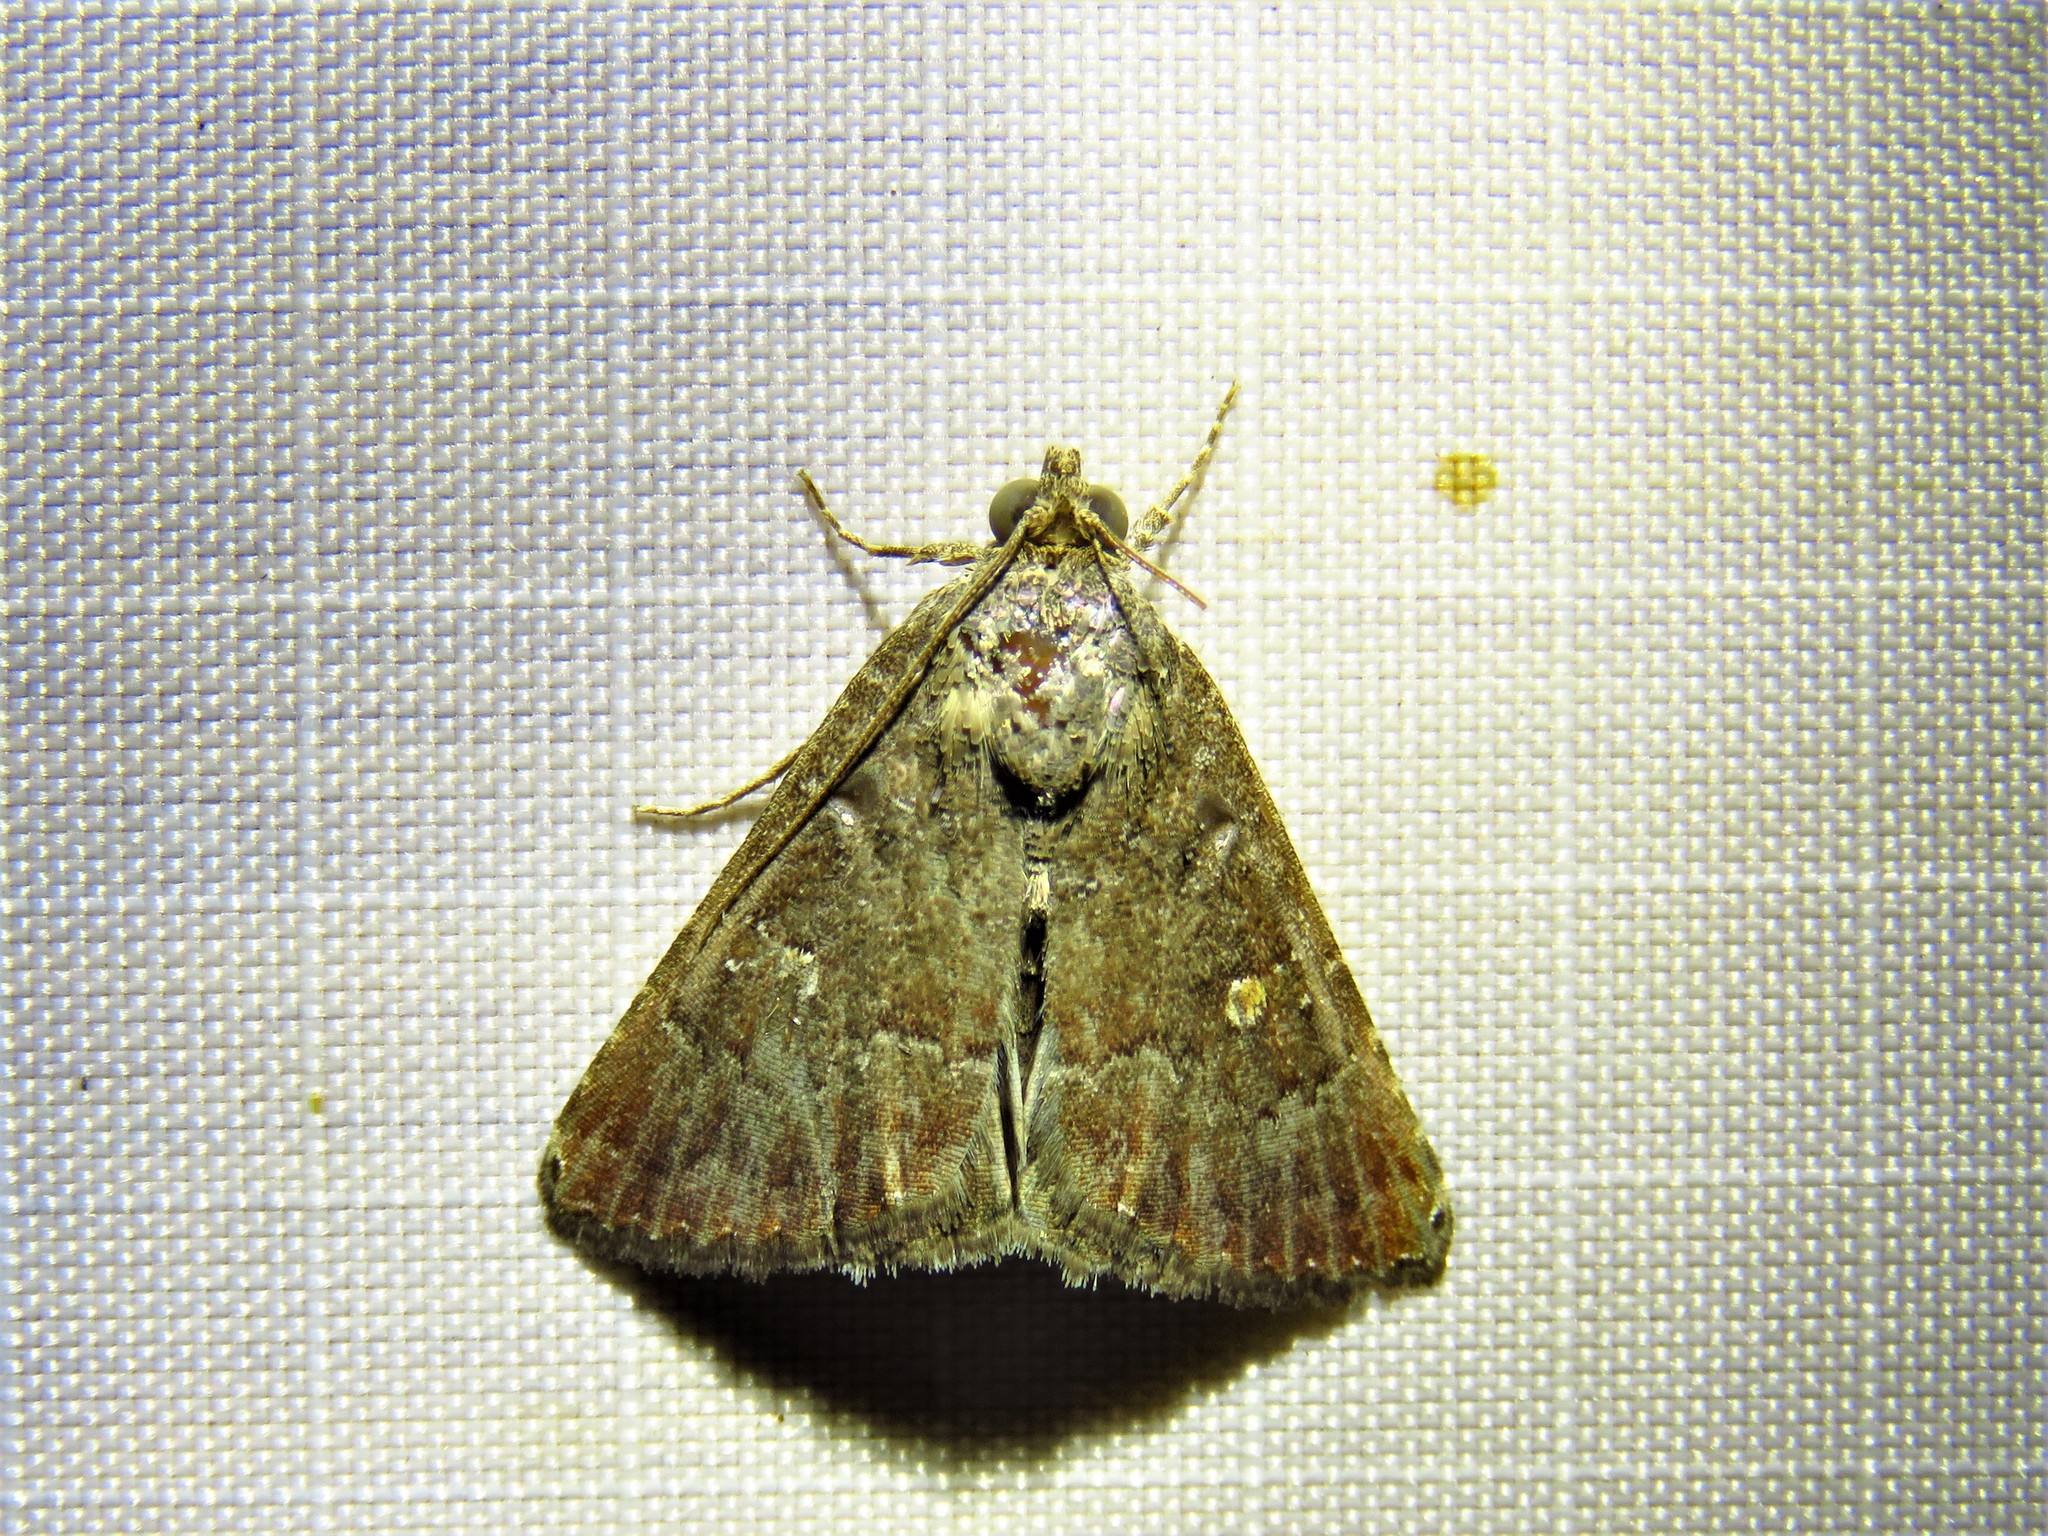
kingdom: Animalia
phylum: Arthropoda
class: Insecta
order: Lepidoptera
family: Noctuidae
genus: Amyna
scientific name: Amyna stricta
